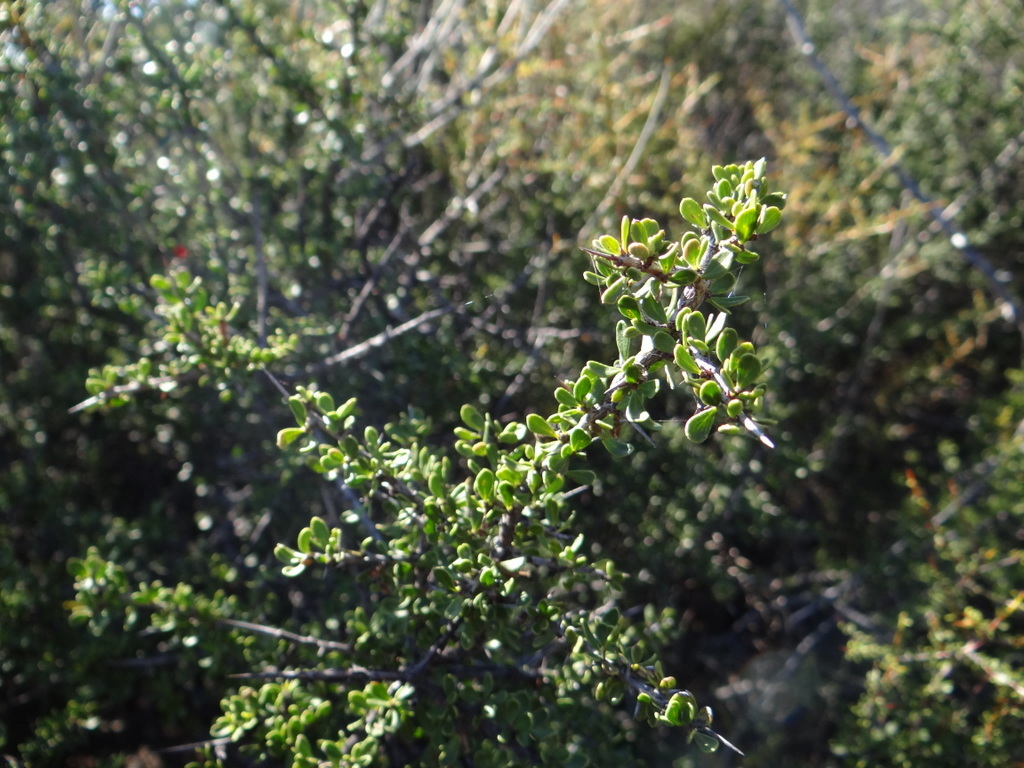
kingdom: Plantae
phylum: Tracheophyta
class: Magnoliopsida
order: Rosales
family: Rhamnaceae
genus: Condalia
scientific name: Condalia microphylla
